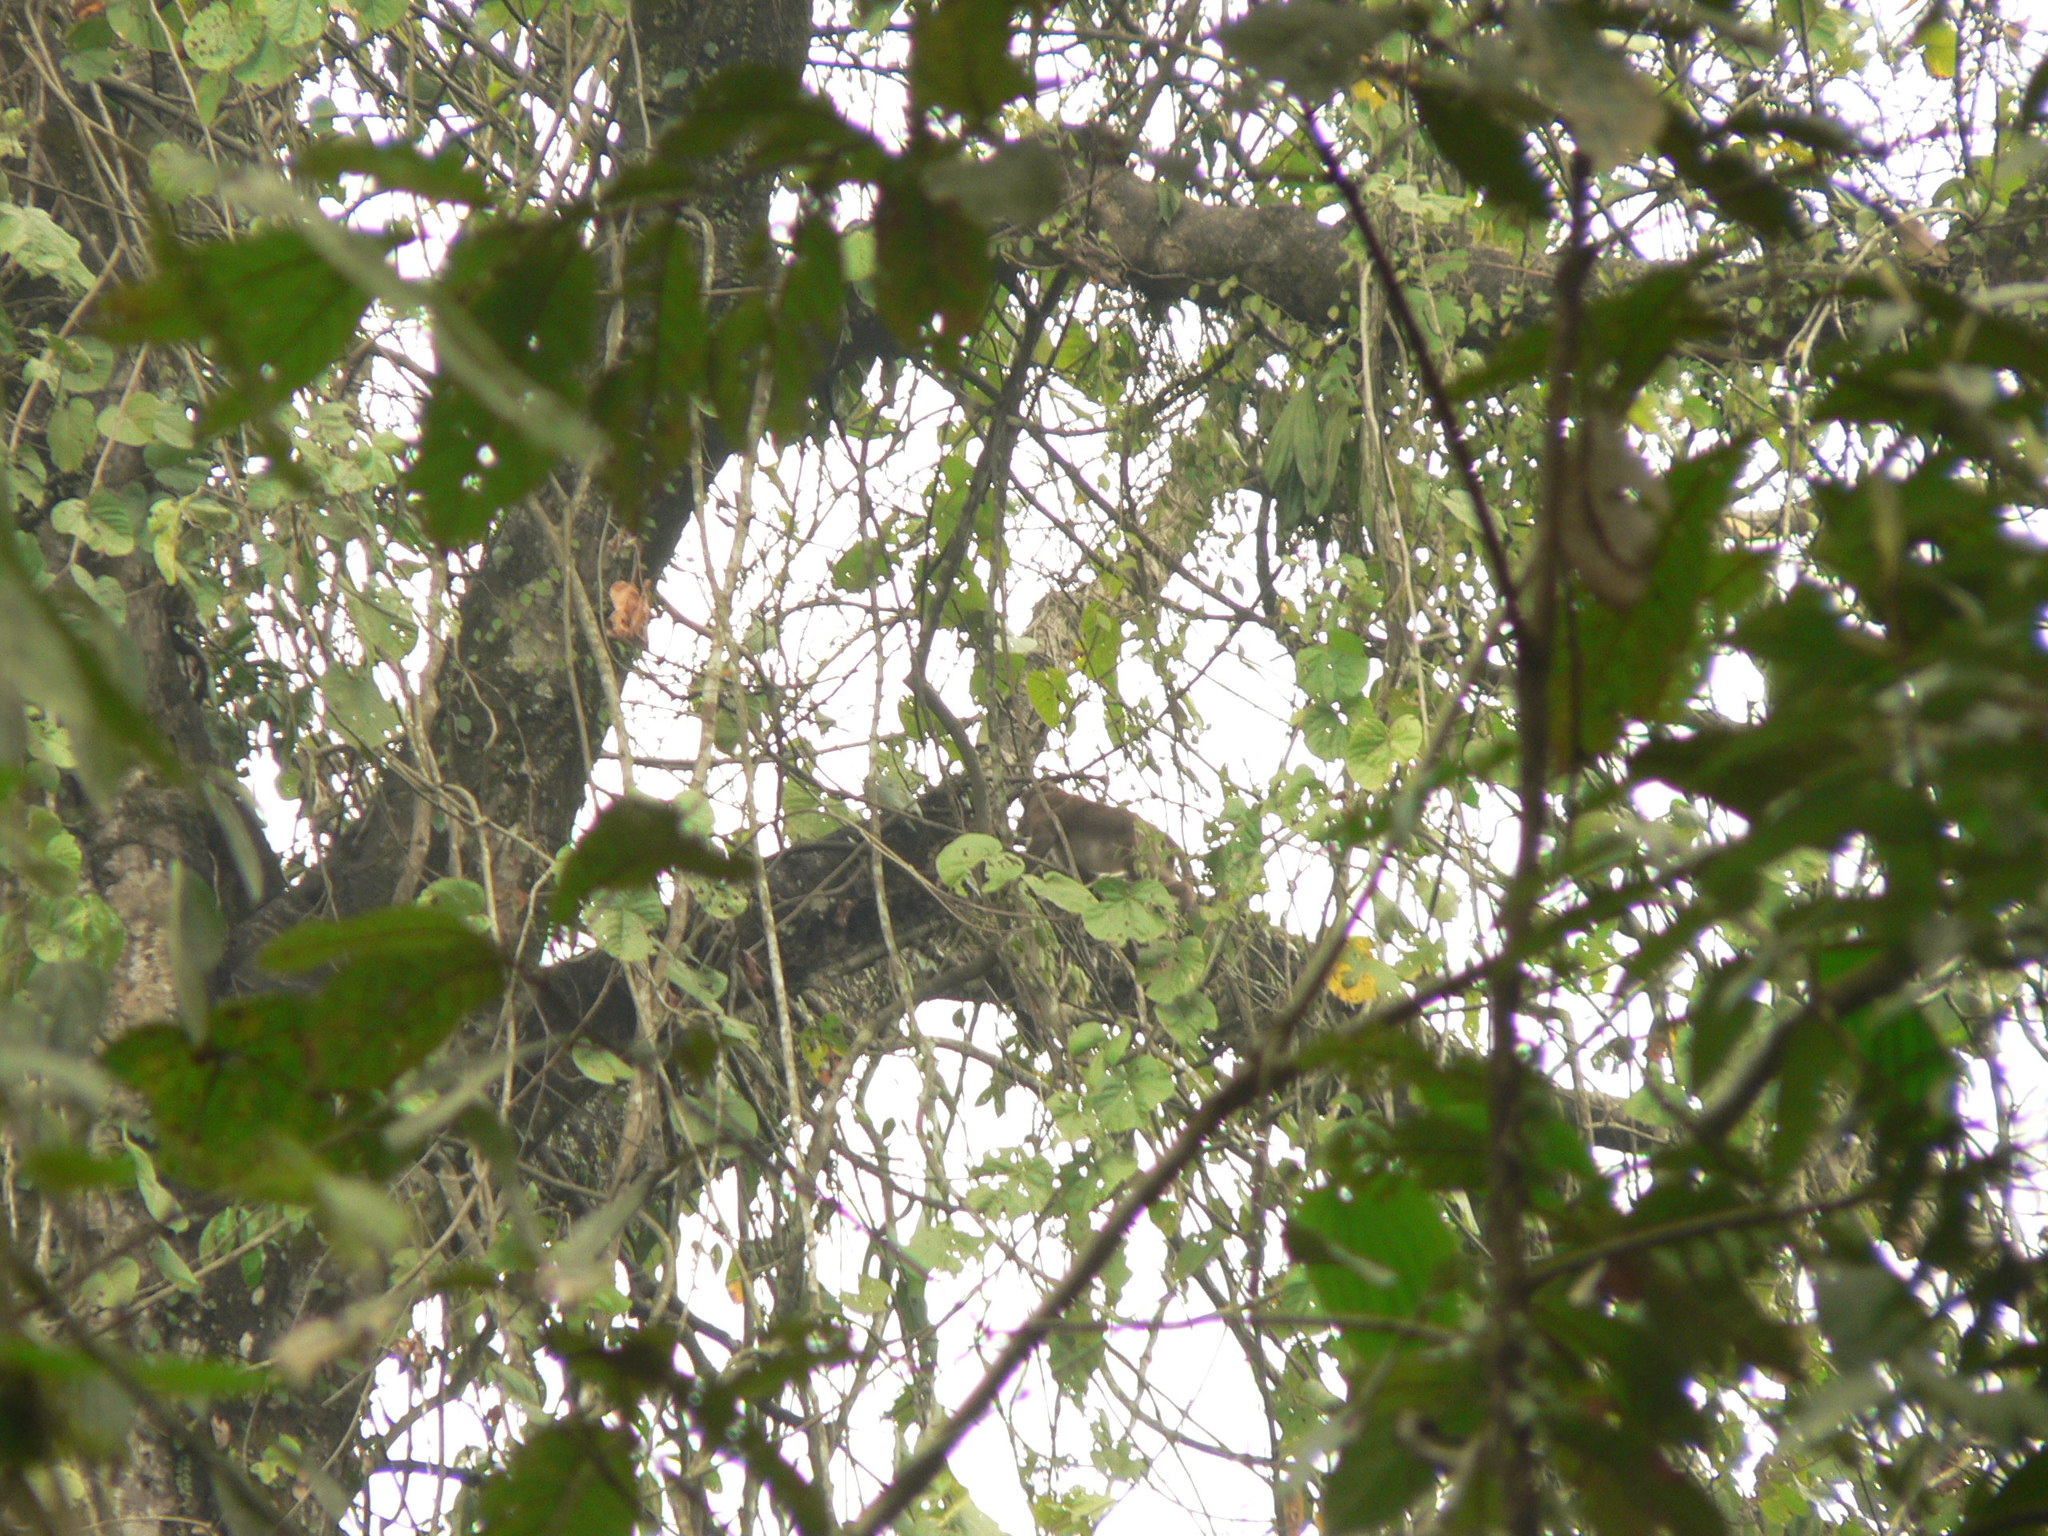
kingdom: Animalia
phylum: Chordata
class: Mammalia
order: Primates
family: Cercopithecidae
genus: Macaca
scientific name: Macaca assamensis
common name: Assam macaque
